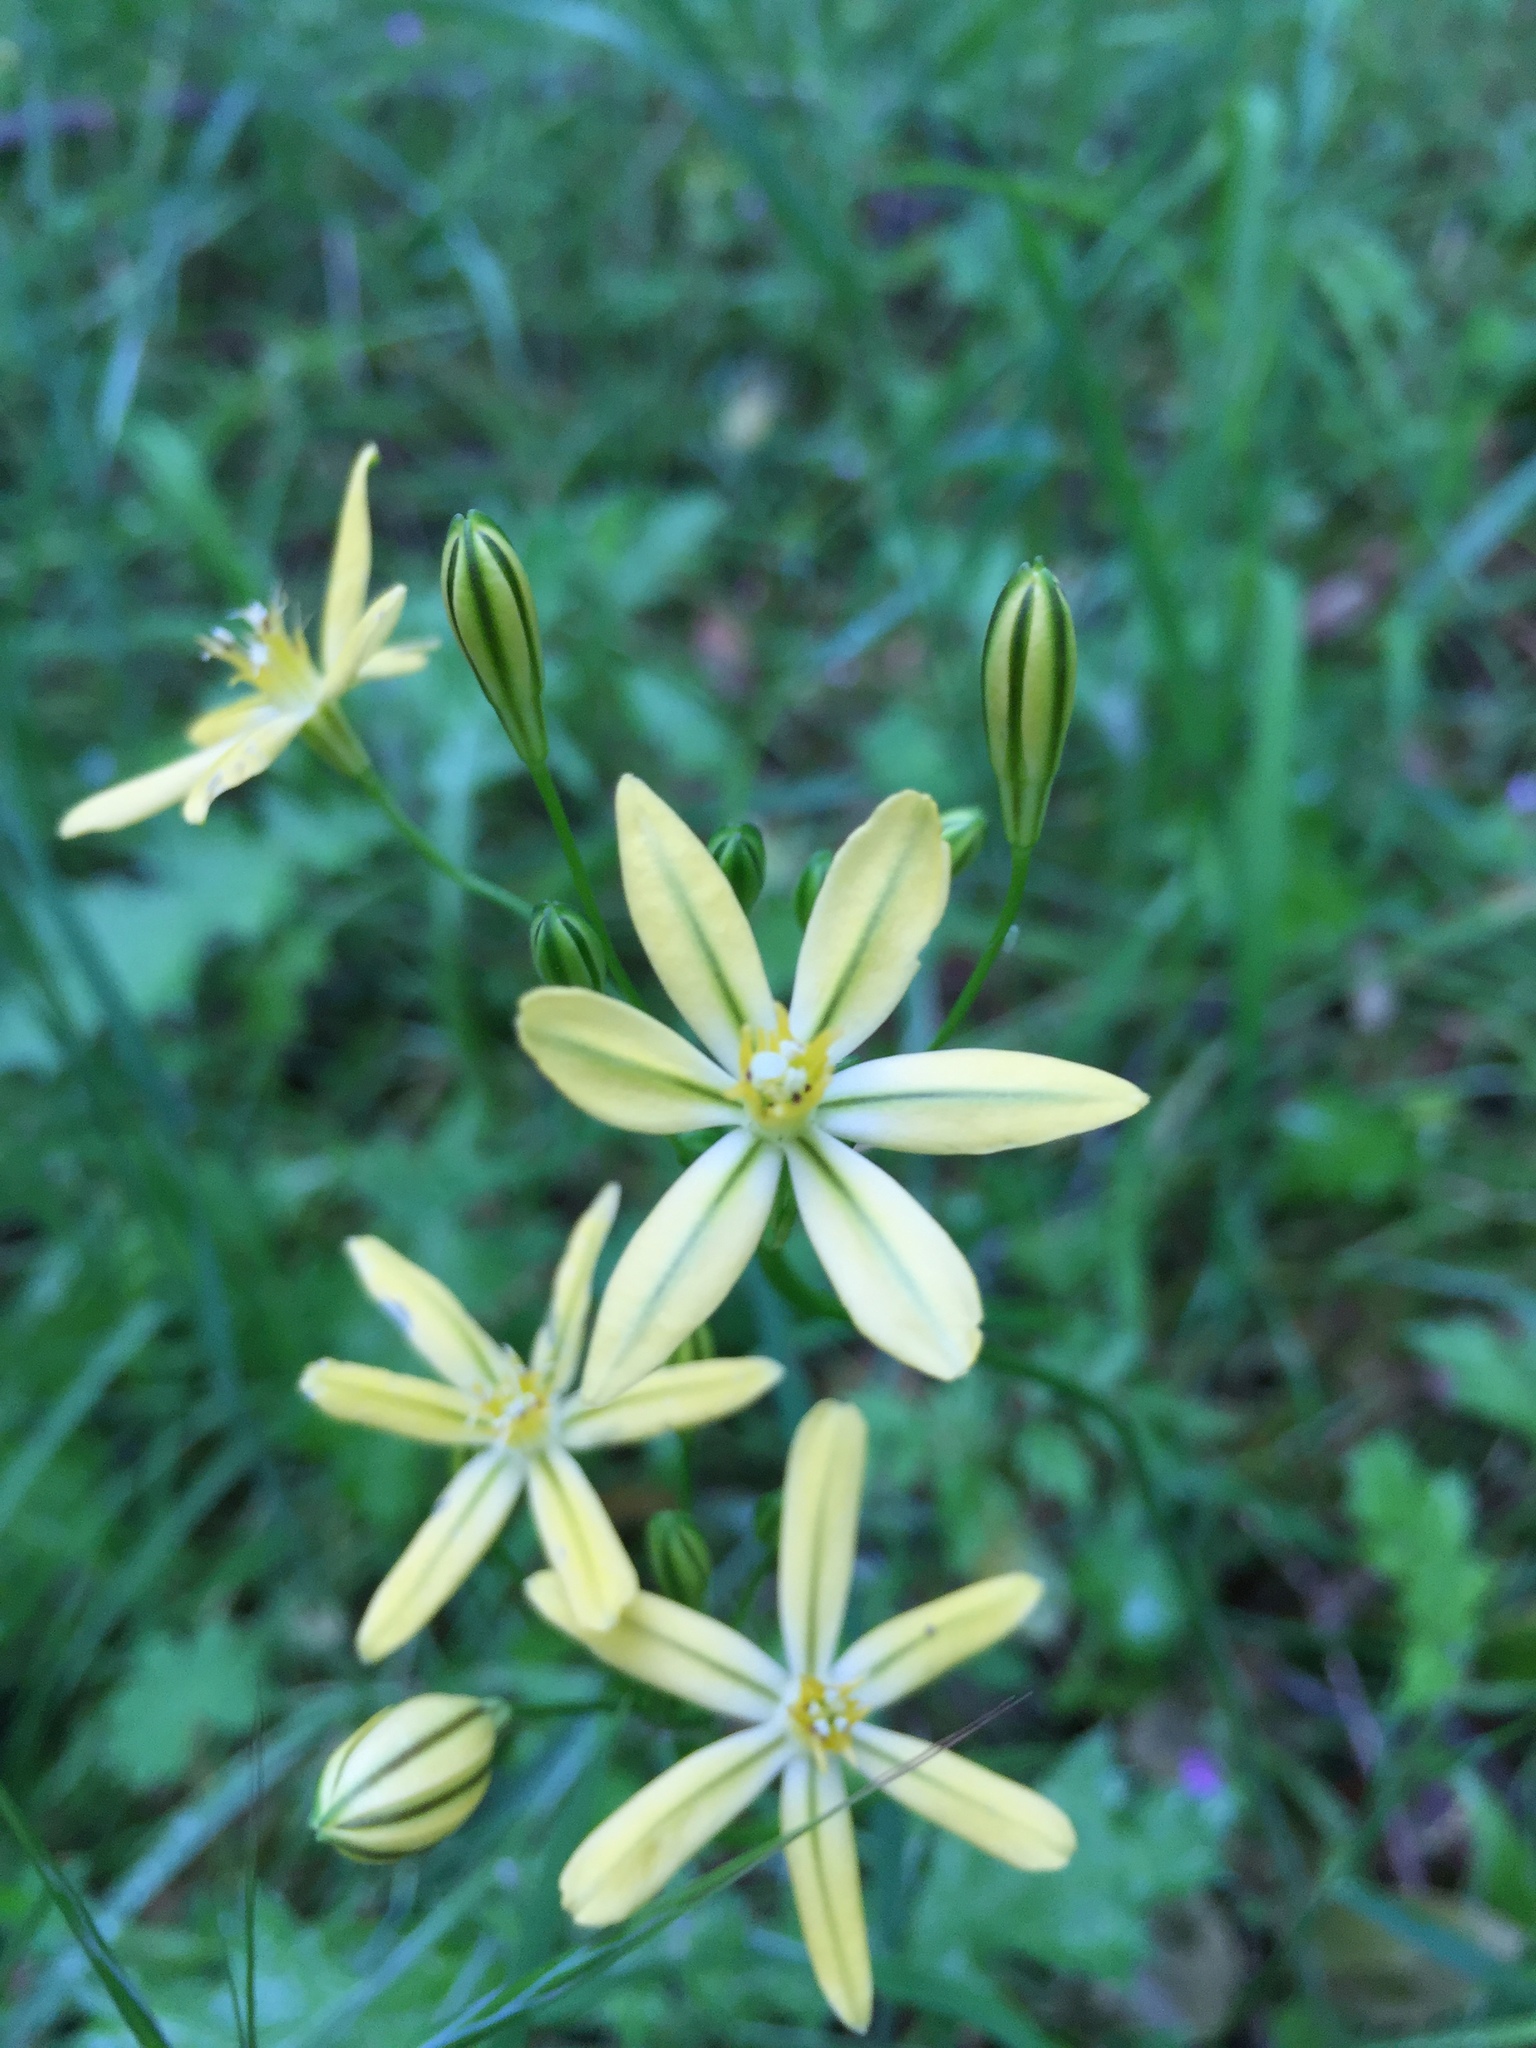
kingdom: Plantae
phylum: Tracheophyta
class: Liliopsida
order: Asparagales
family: Asparagaceae
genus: Triteleia
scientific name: Triteleia ixioides
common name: Yellow-brodiaea
